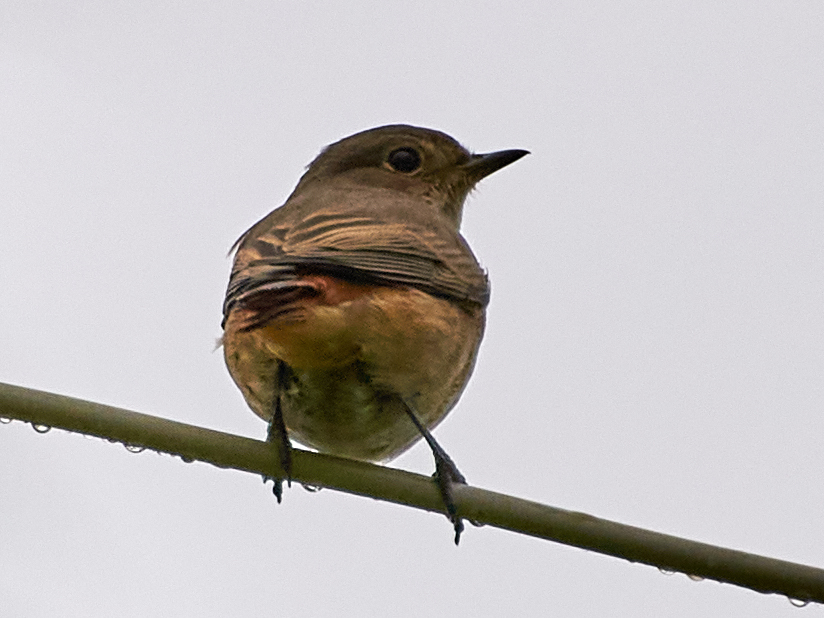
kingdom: Animalia
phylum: Chordata
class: Aves
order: Passeriformes
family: Muscicapidae
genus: Phoenicurus
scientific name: Phoenicurus phoenicurus
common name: Common redstart
